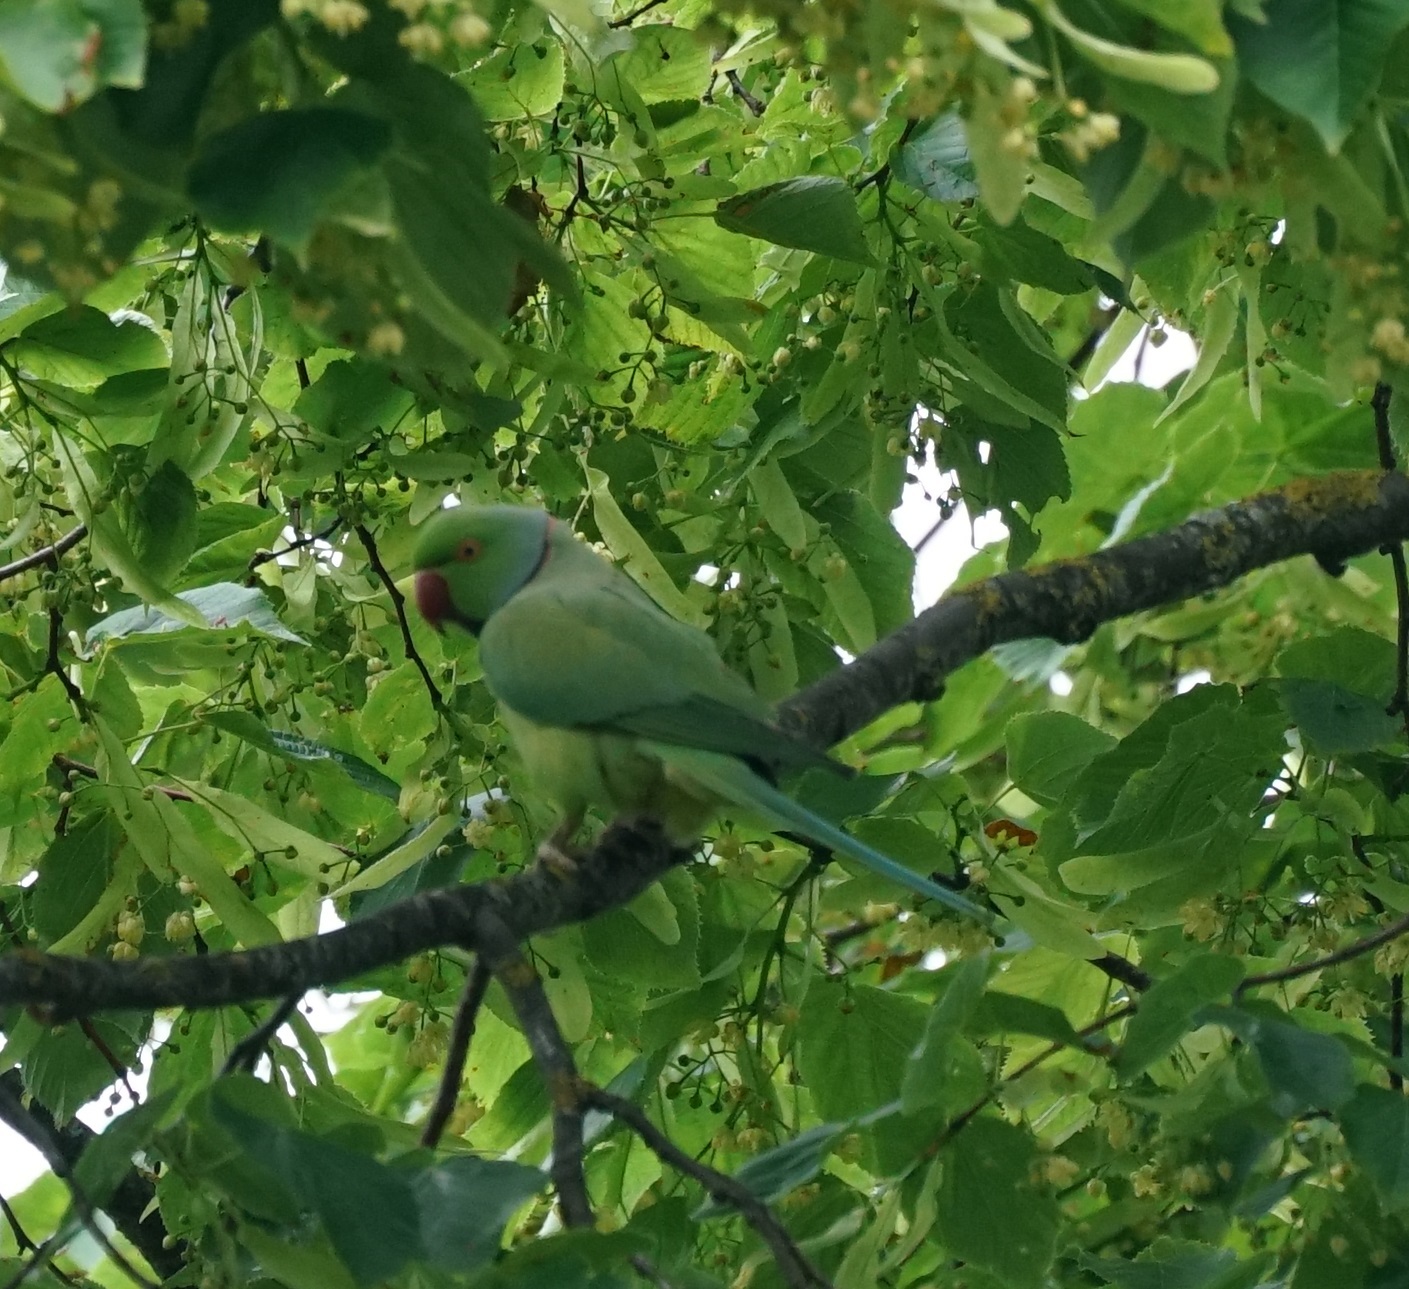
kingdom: Animalia
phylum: Chordata
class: Aves
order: Psittaciformes
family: Psittacidae
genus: Psittacula
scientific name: Psittacula krameri
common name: Rose-ringed parakeet
